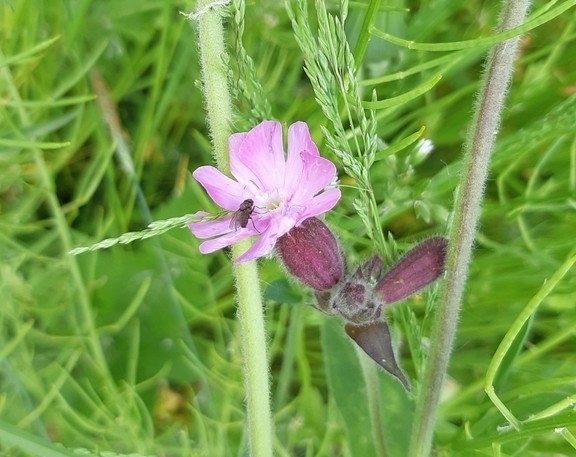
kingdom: Plantae
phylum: Tracheophyta
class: Magnoliopsida
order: Caryophyllales
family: Caryophyllaceae
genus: Silene
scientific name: Silene dioica
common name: Red campion
